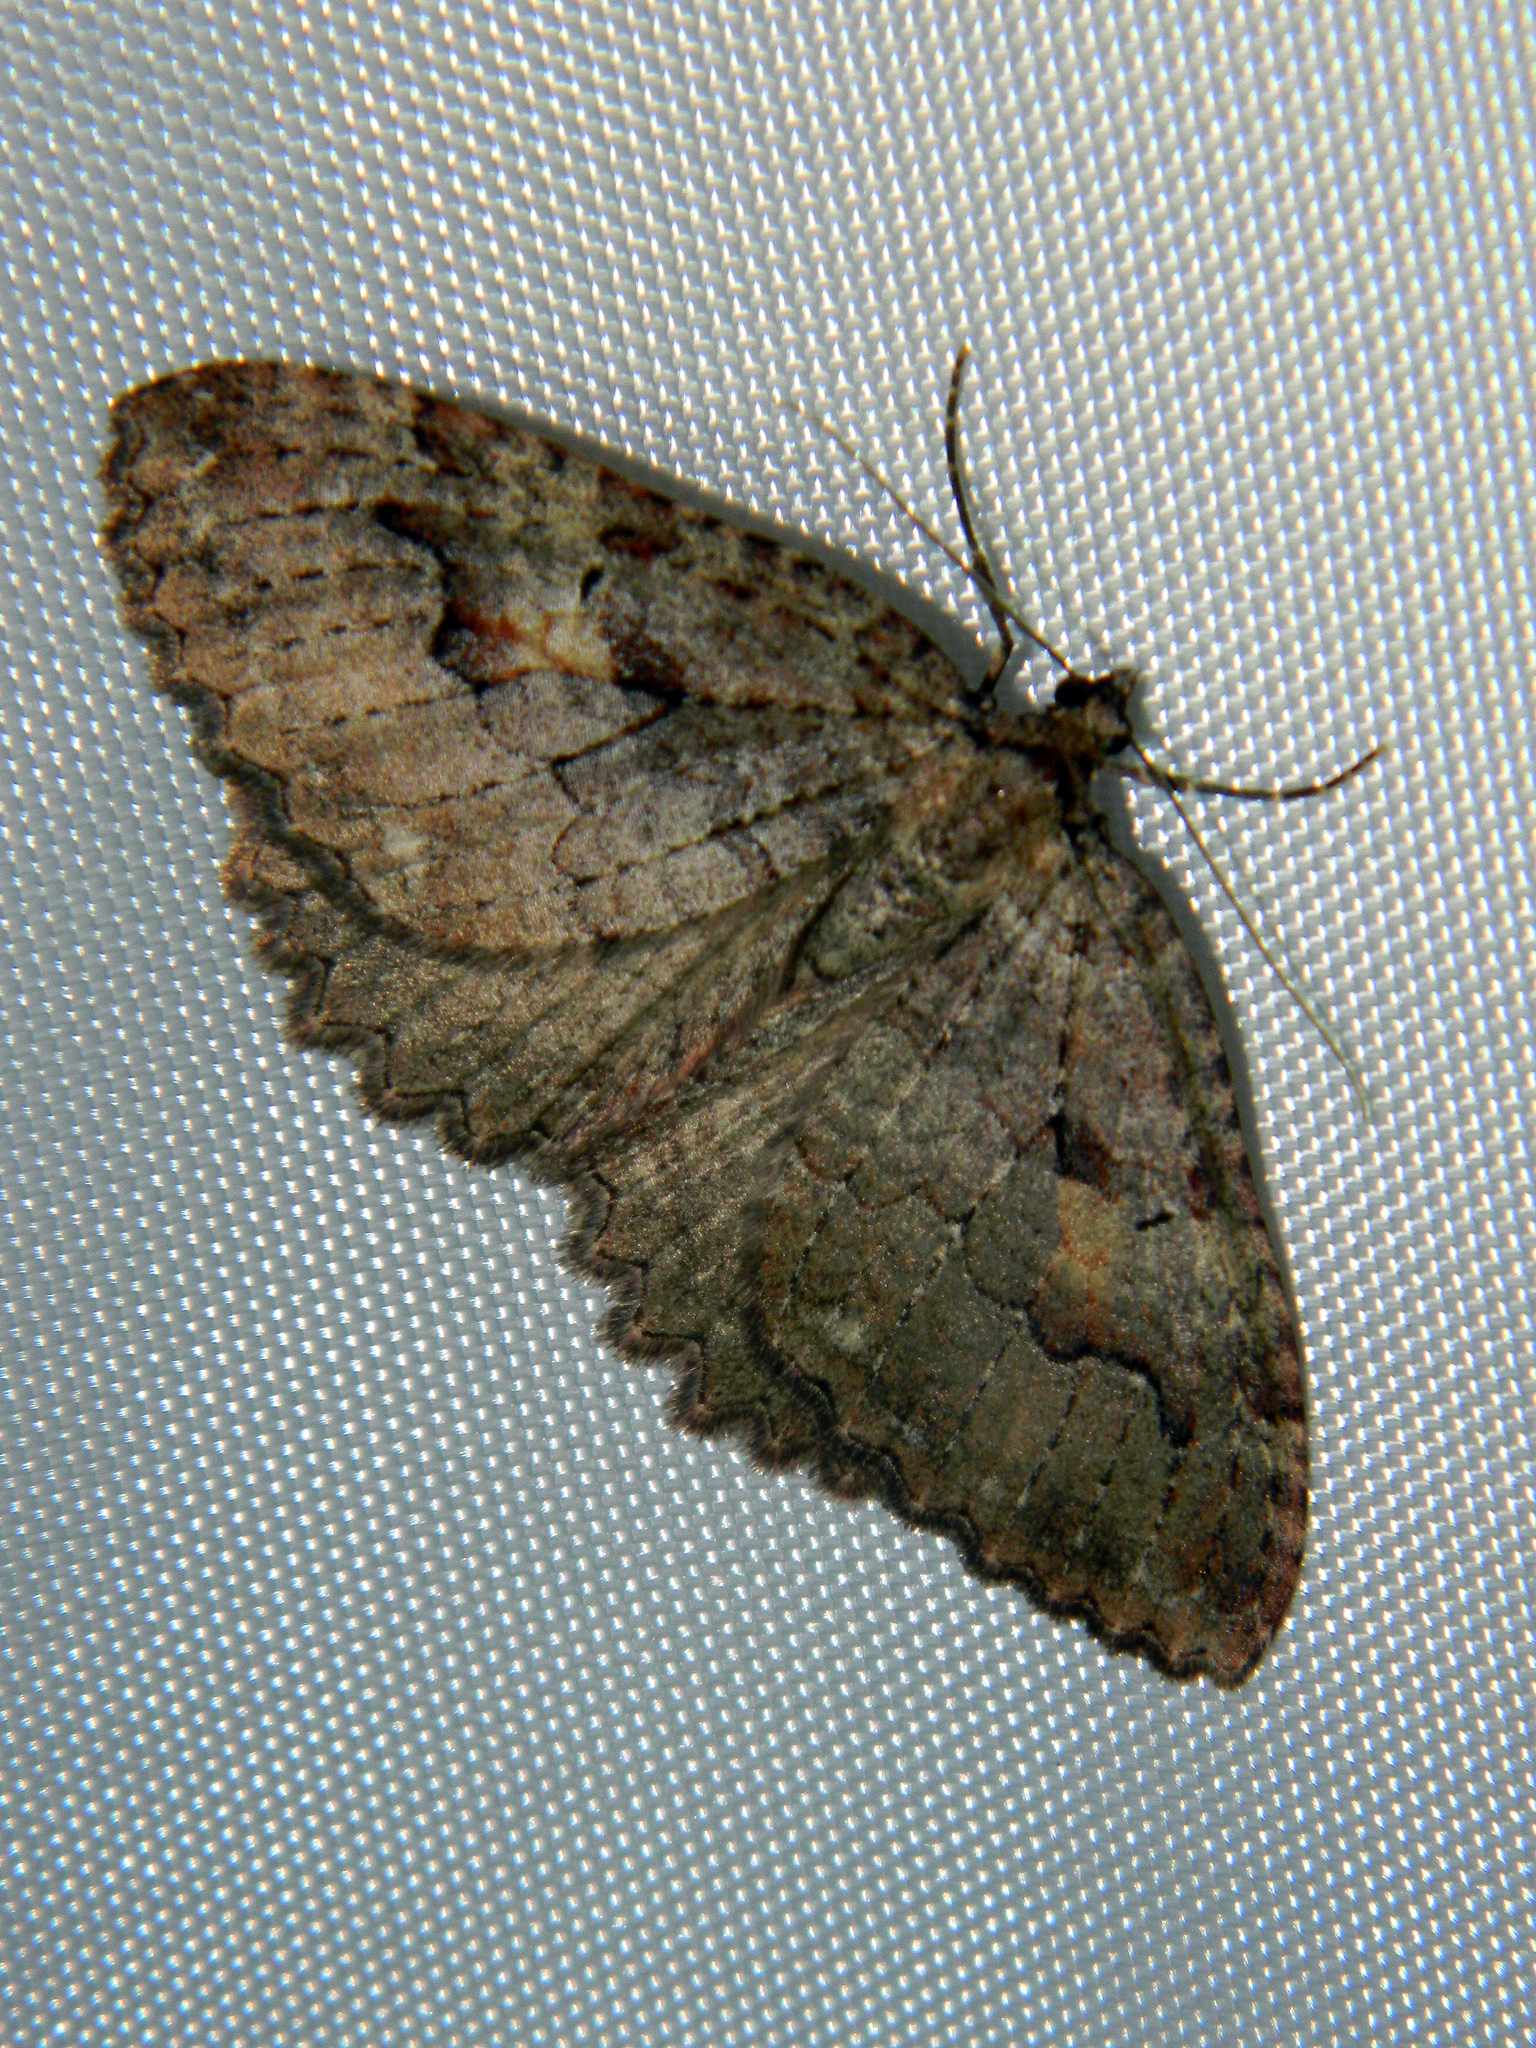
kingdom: Animalia
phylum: Arthropoda
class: Insecta
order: Lepidoptera
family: Geometridae
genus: Triphosa
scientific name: Triphosa haesitata
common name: Tissue moth
